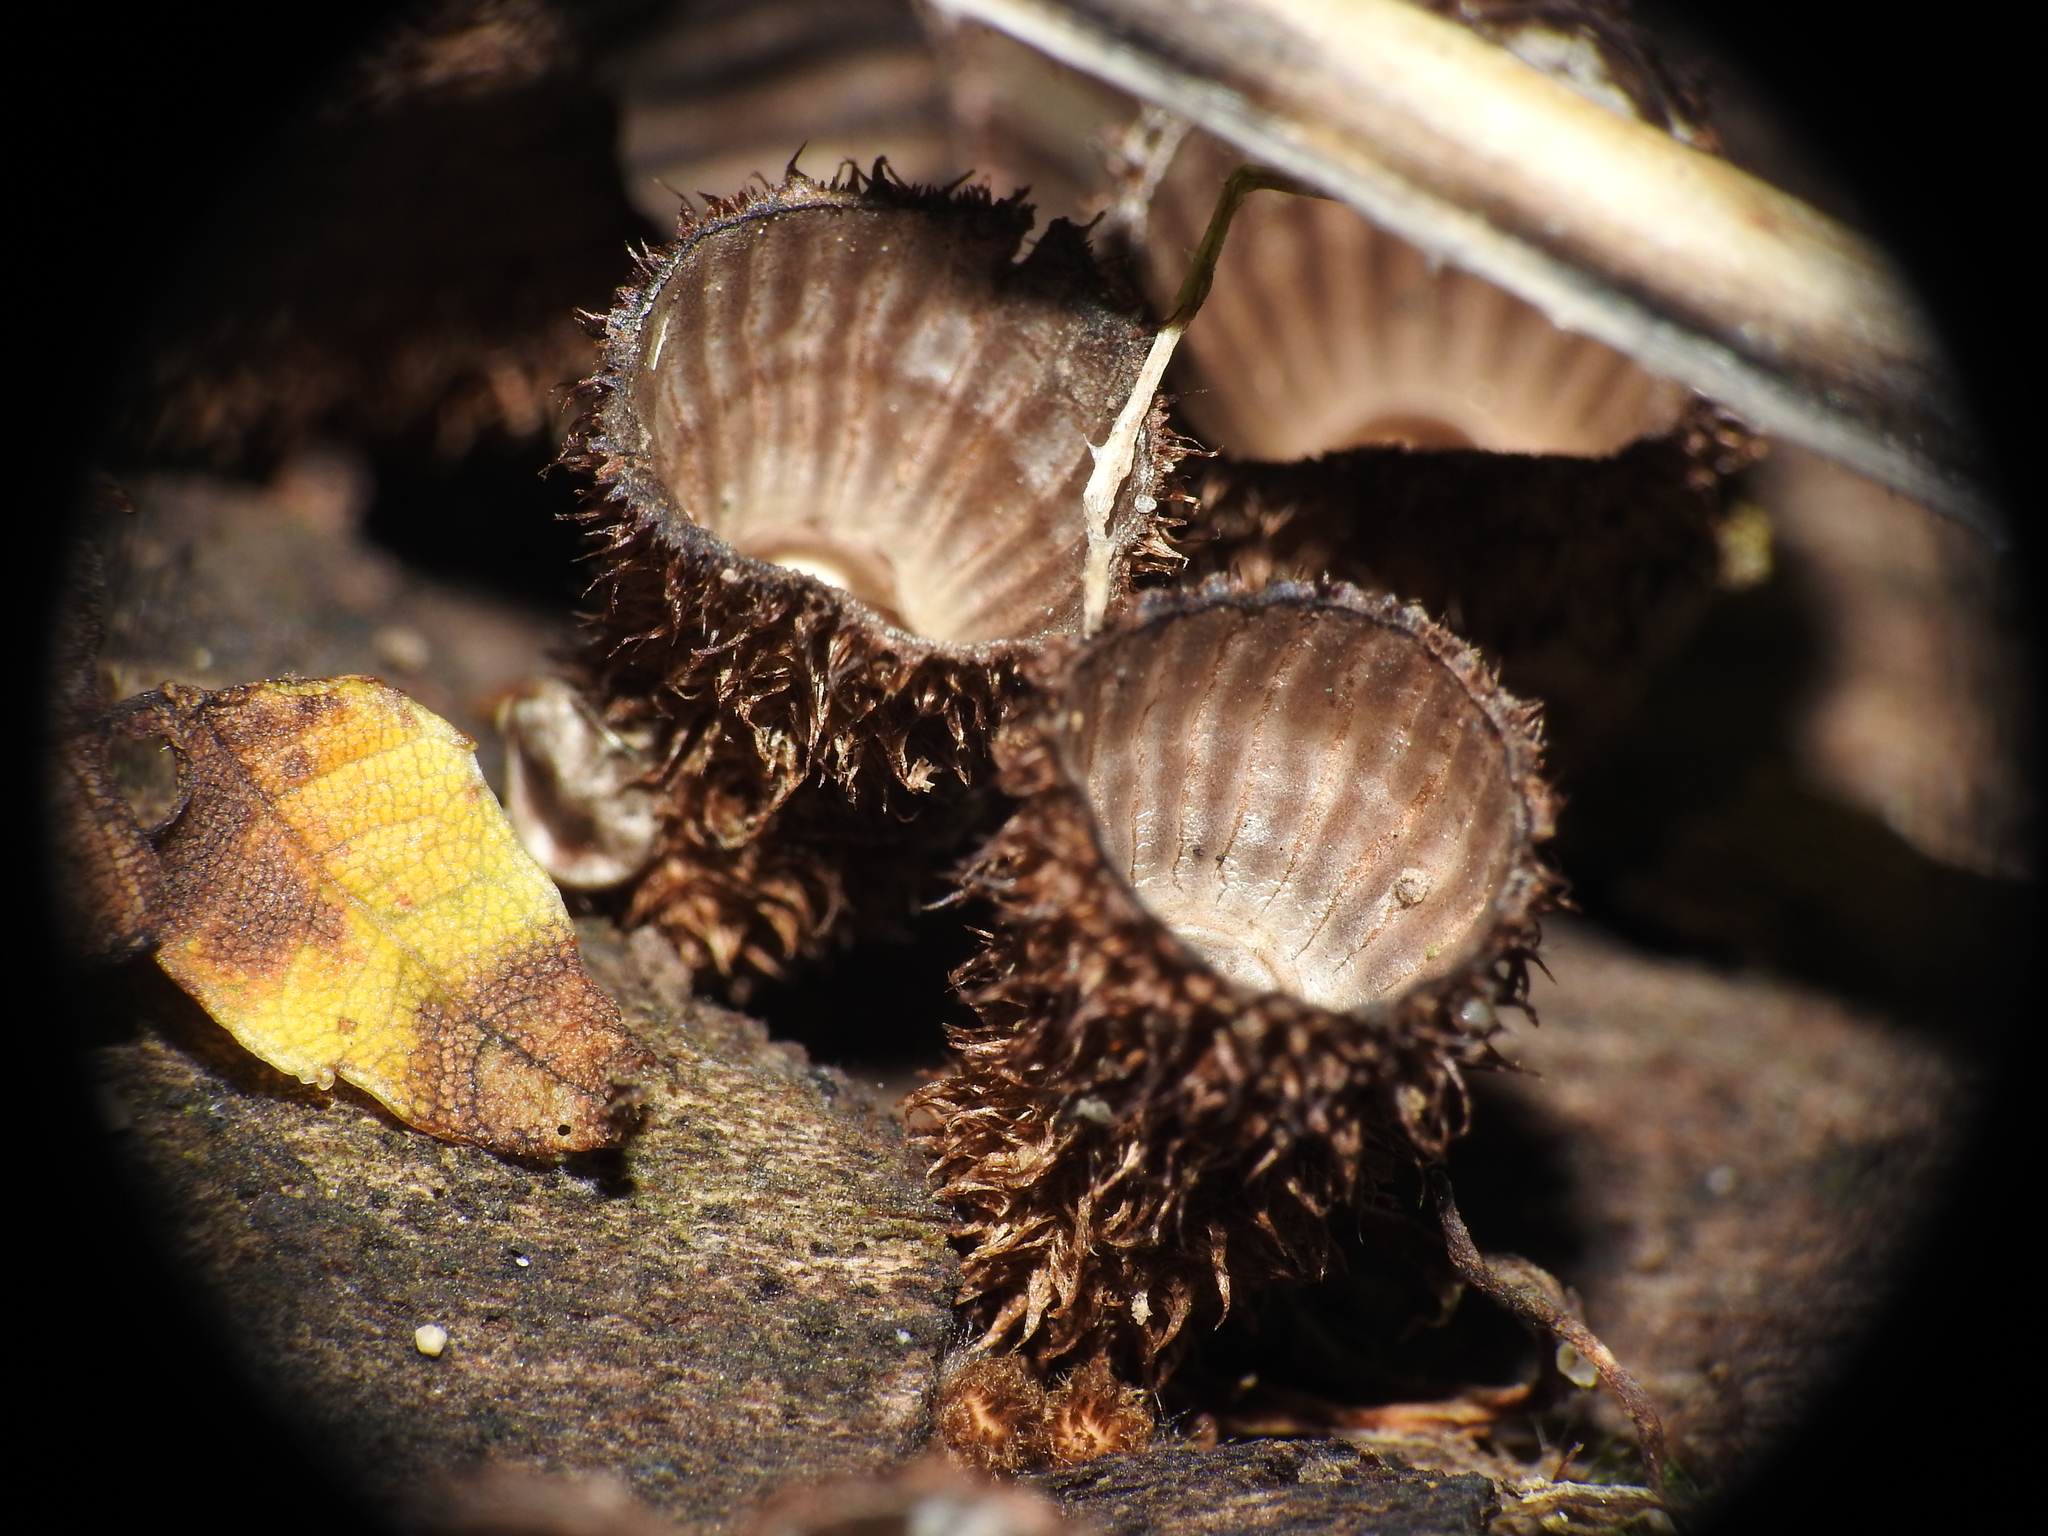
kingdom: Fungi
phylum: Basidiomycota
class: Agaricomycetes
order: Agaricales
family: Agaricaceae
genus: Cyathus
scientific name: Cyathus striatus
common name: Fluted bird's nest
